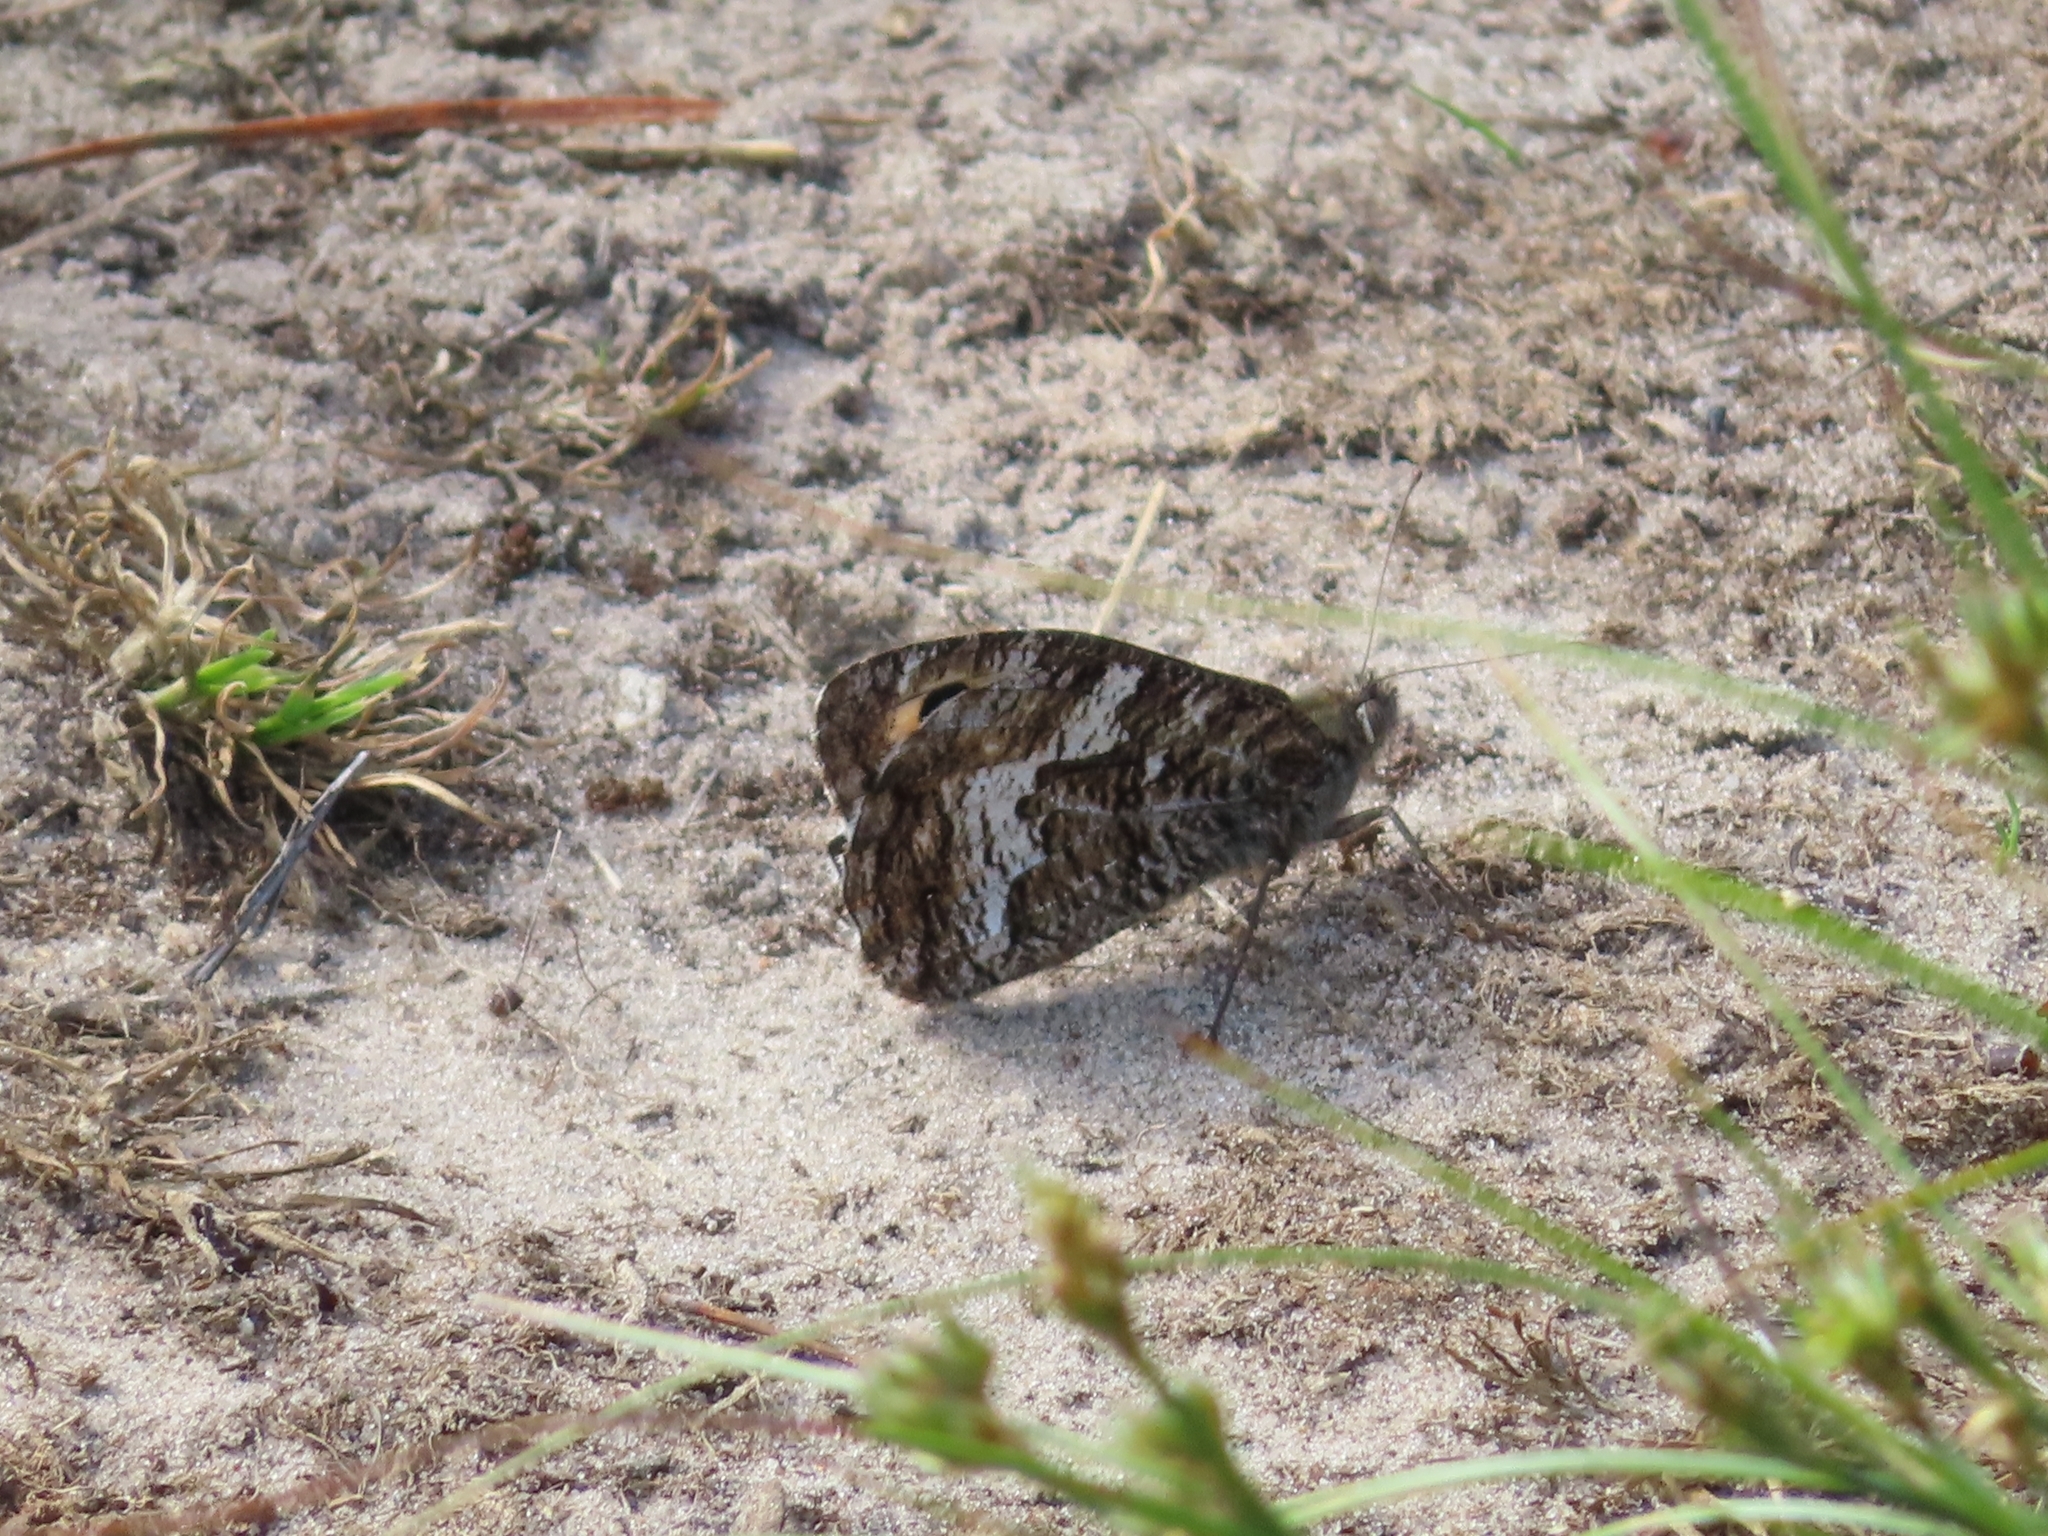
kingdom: Animalia
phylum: Arthropoda
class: Insecta
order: Lepidoptera
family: Nymphalidae
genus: Hipparchia
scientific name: Hipparchia semele
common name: Grayling
